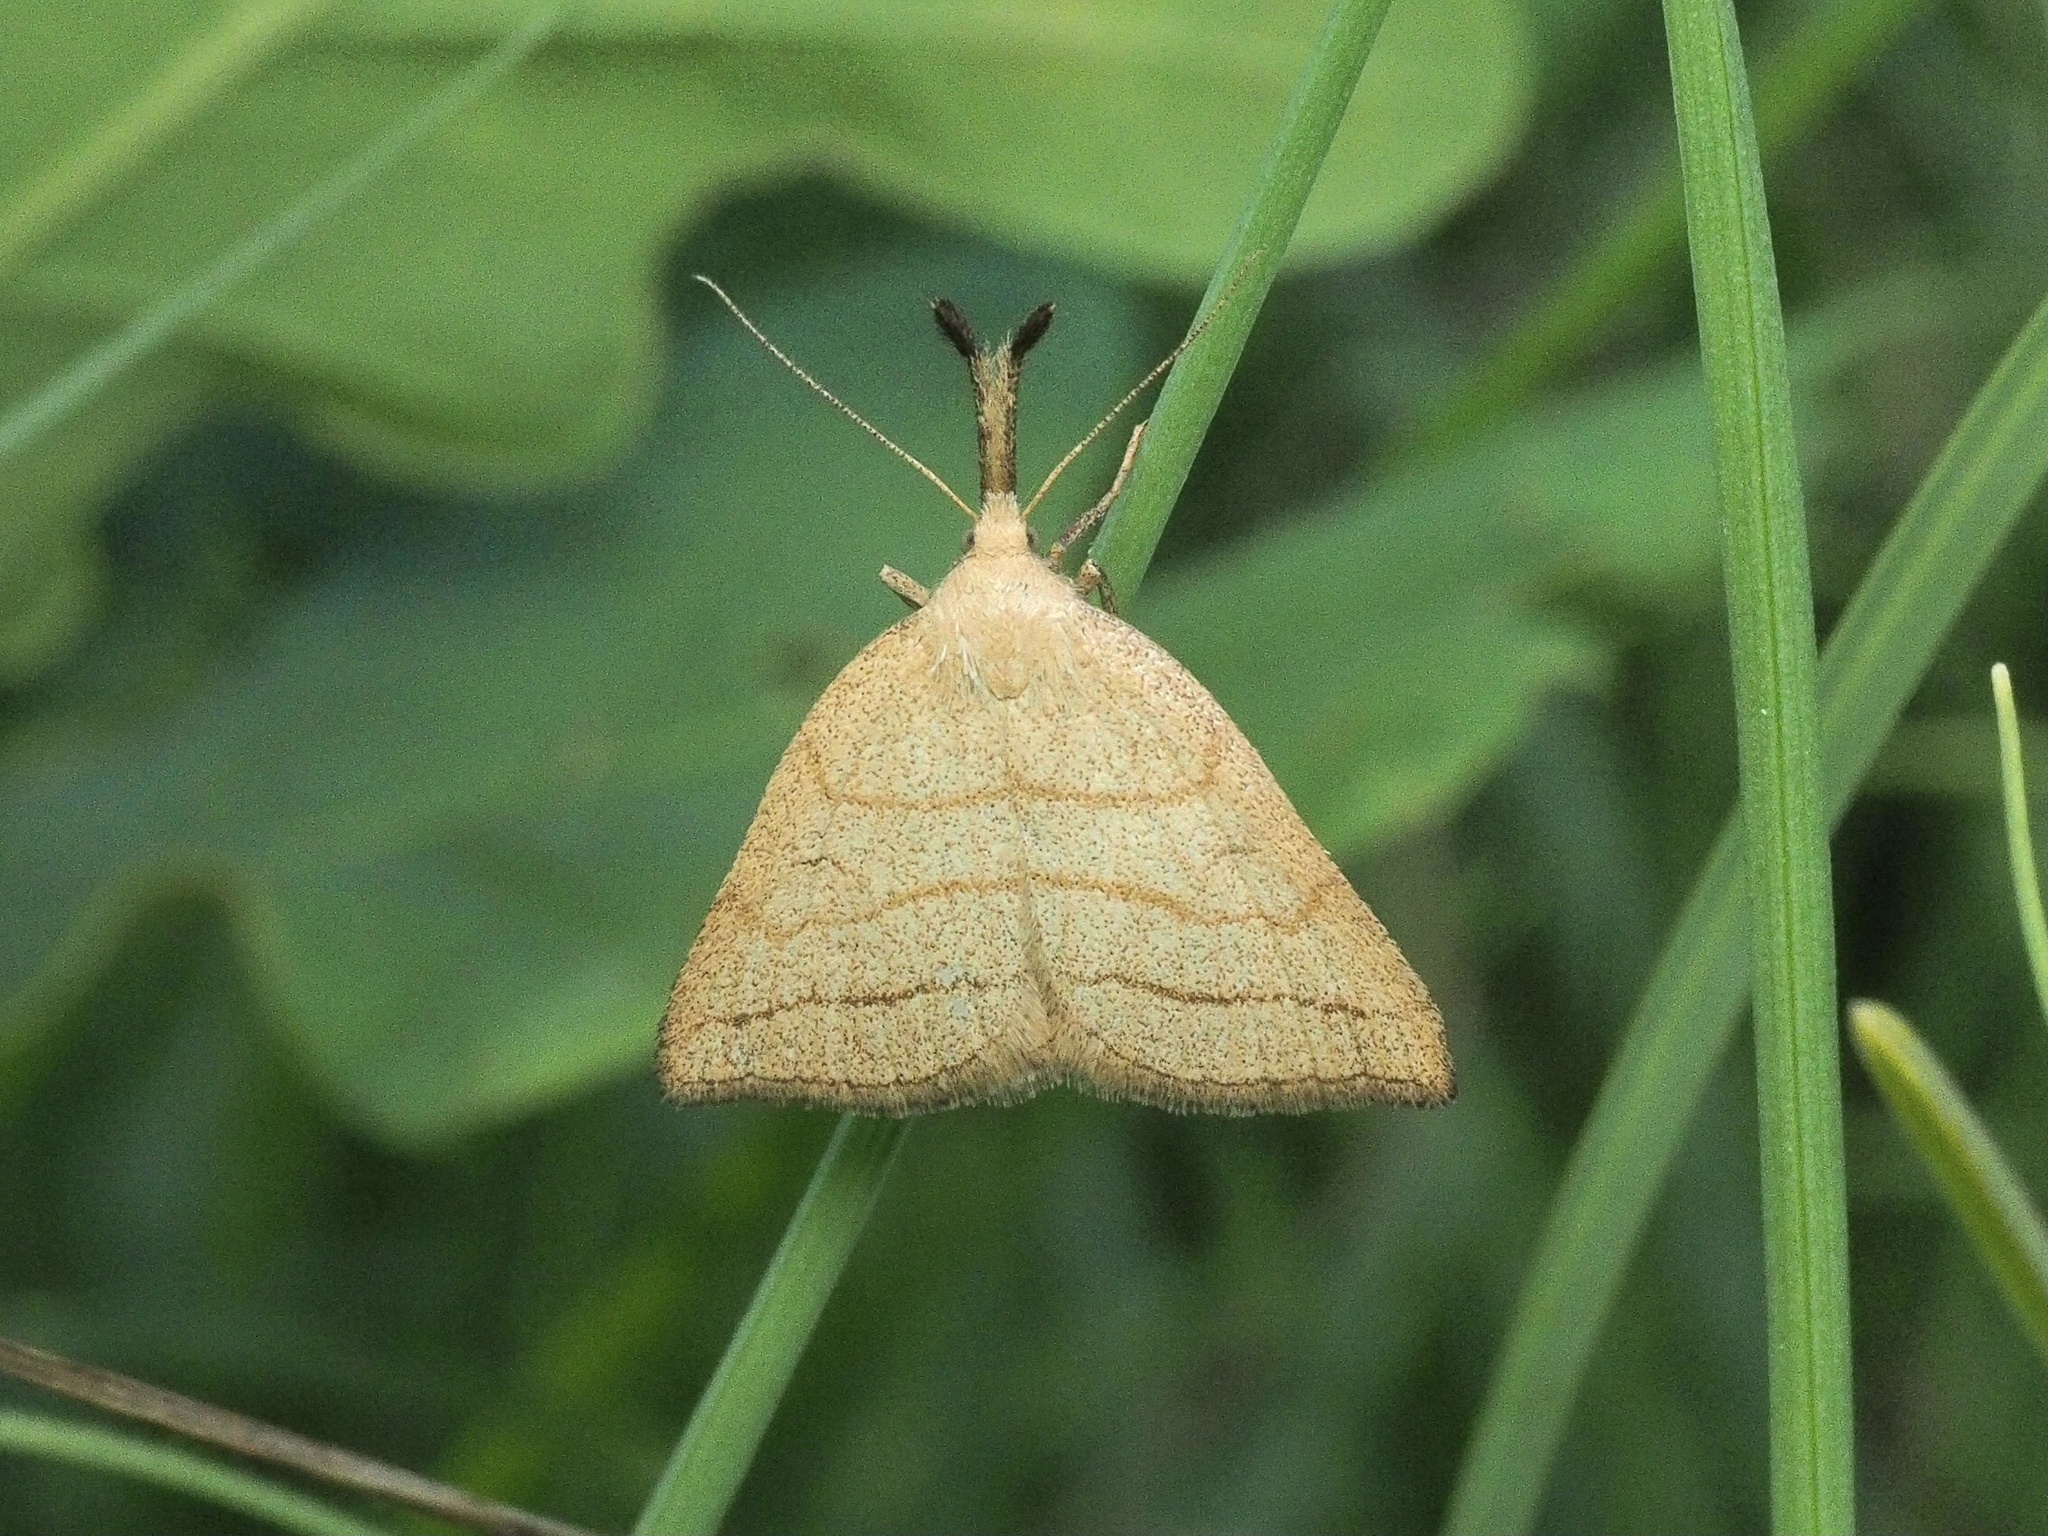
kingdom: Animalia
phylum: Arthropoda
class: Insecta
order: Lepidoptera
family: Erebidae
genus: Polypogon
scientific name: Polypogon tentacularia
